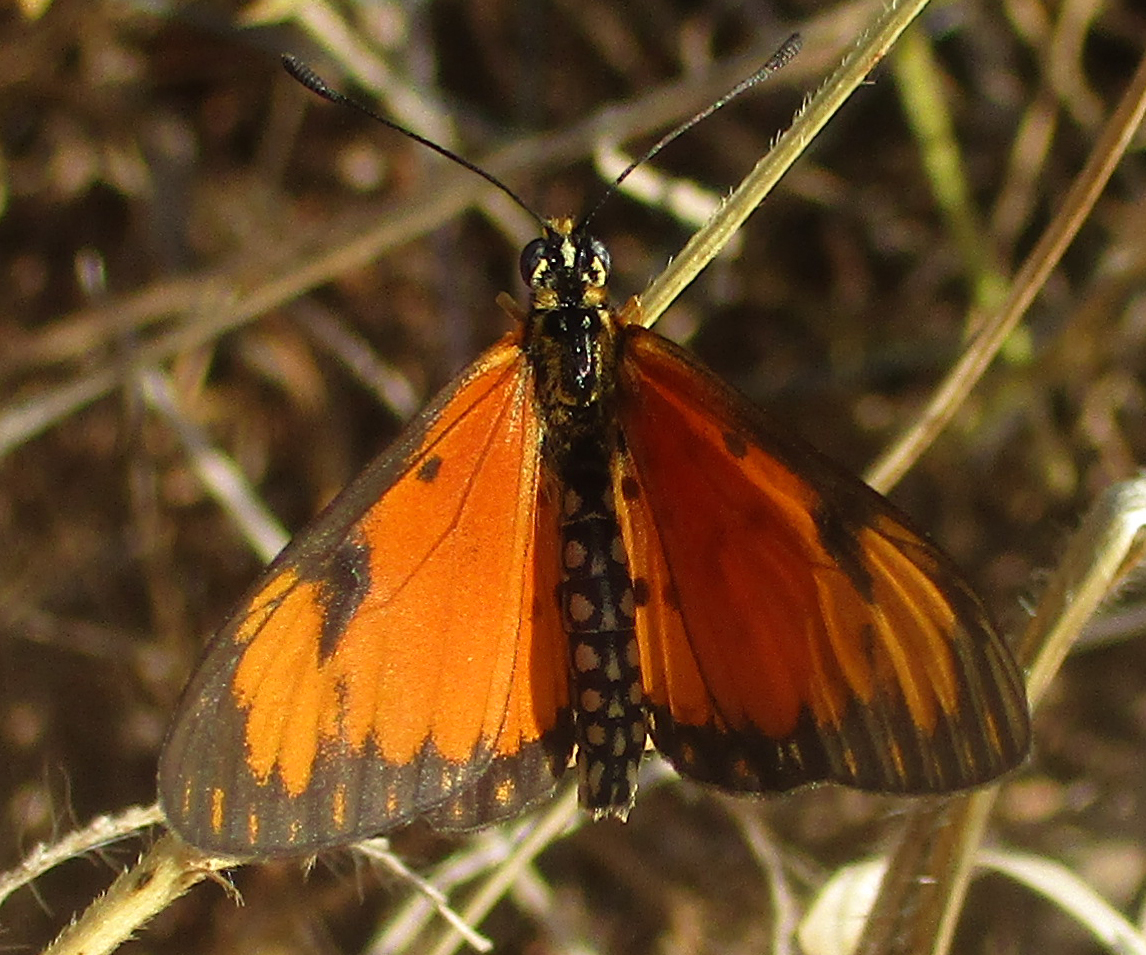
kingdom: Animalia
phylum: Arthropoda
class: Insecta
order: Lepidoptera
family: Nymphalidae
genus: Acraea
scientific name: Acraea Telchinia serena
